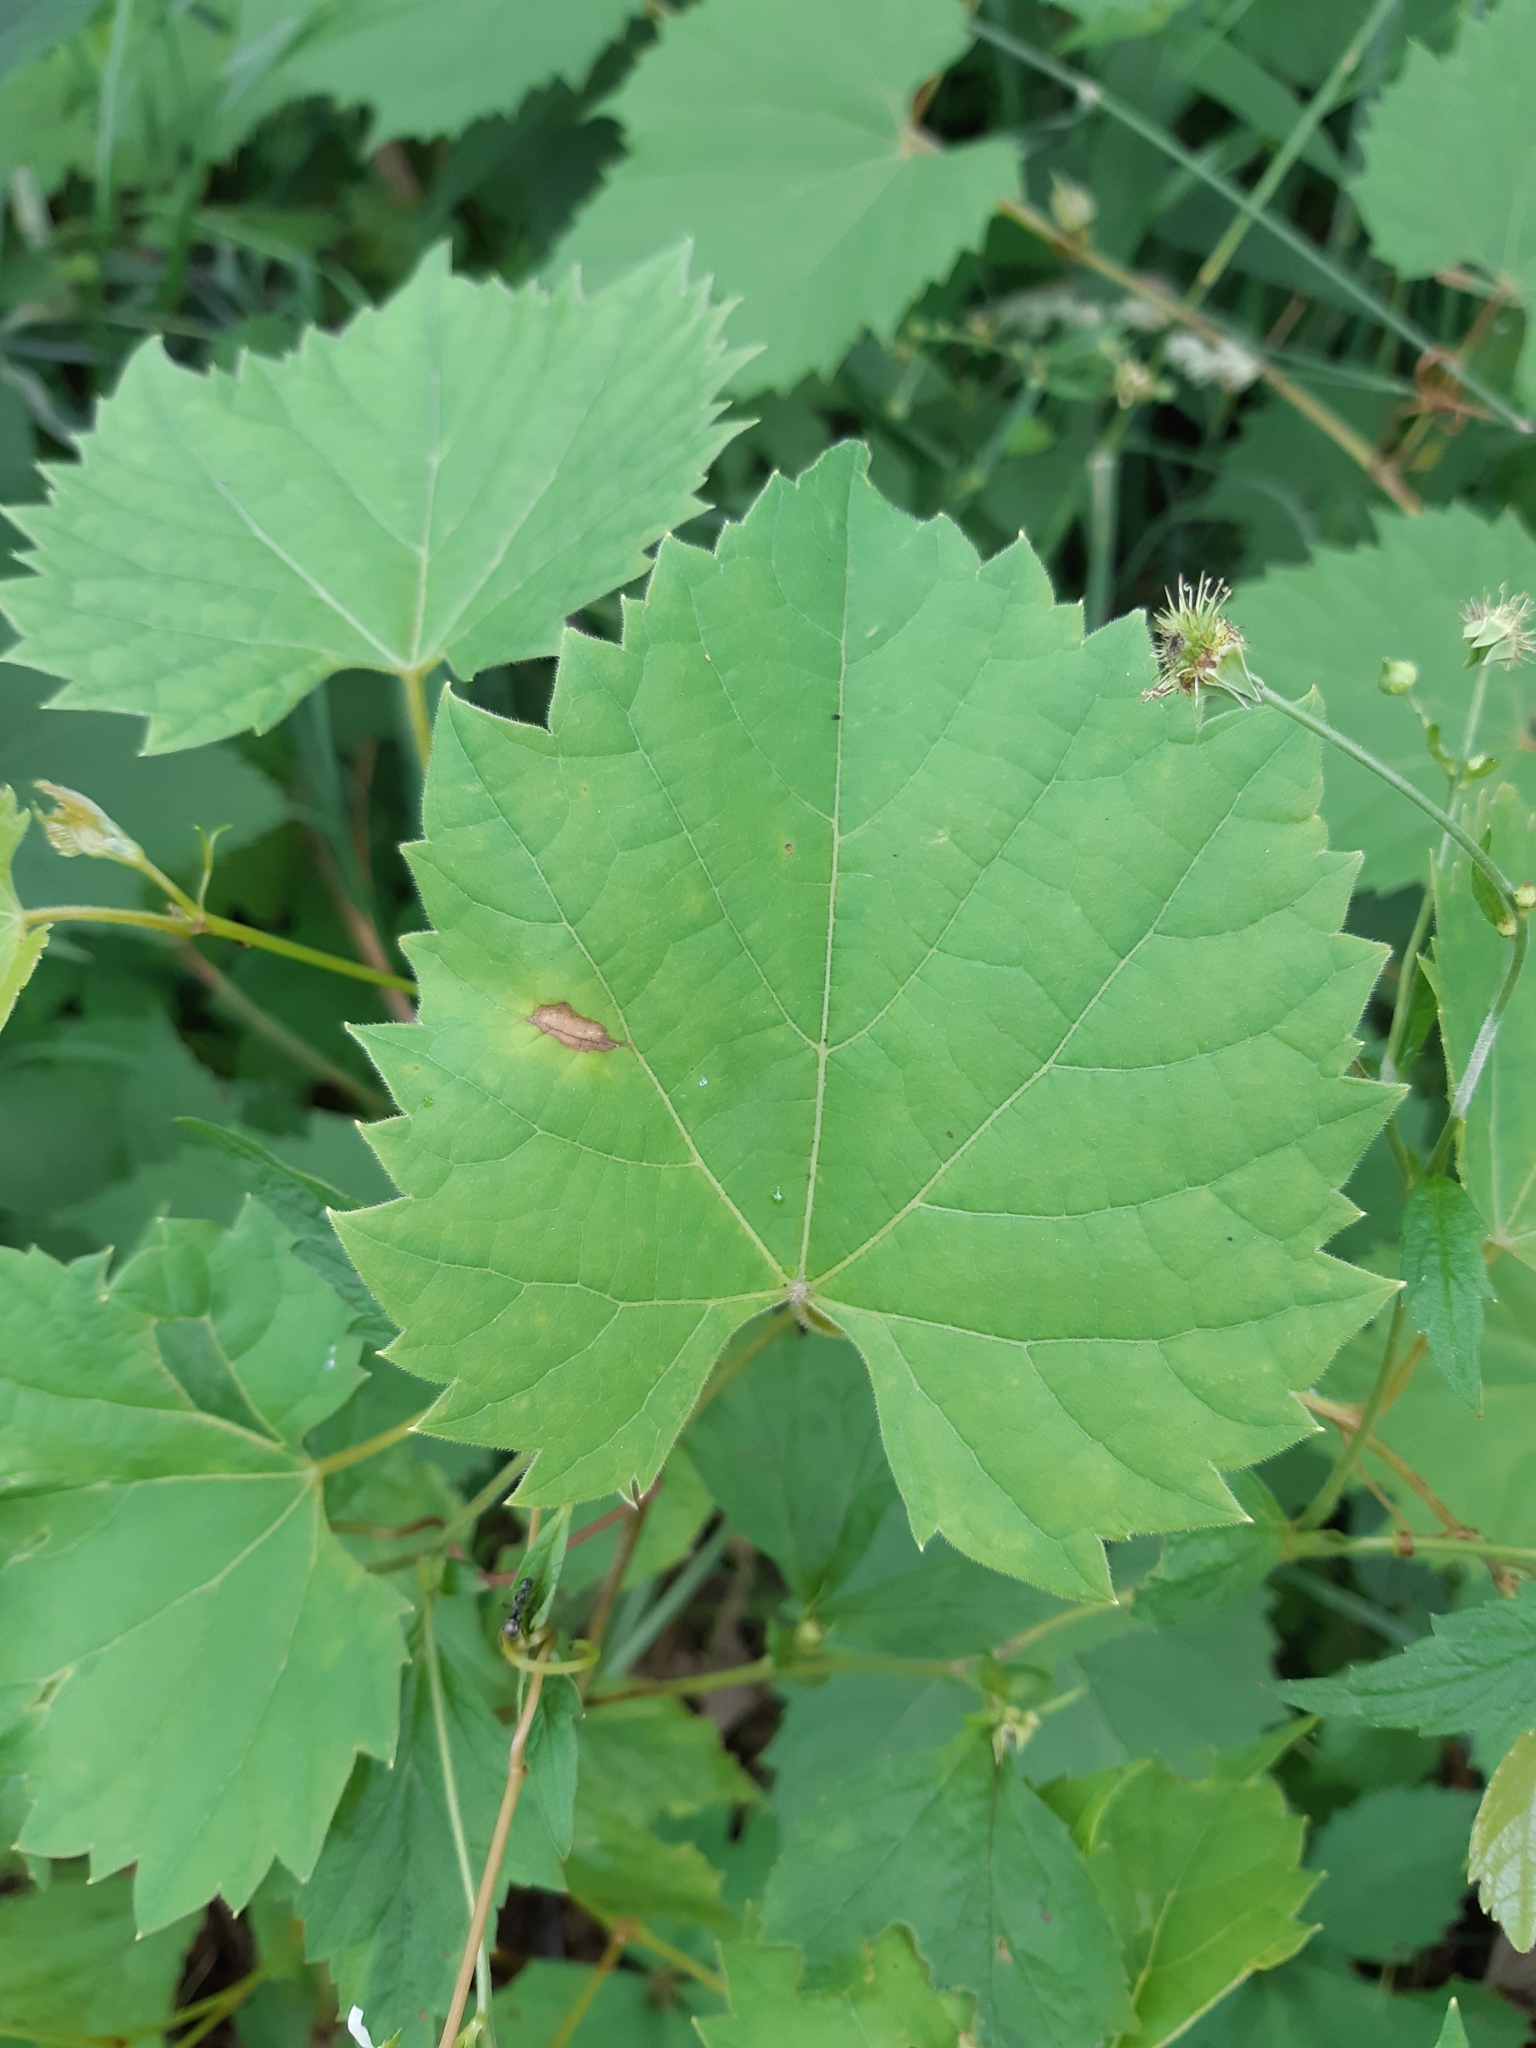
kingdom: Plantae
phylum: Tracheophyta
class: Magnoliopsida
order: Vitales
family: Vitaceae
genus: Vitis
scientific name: Vitis riparia
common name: Frost grape
